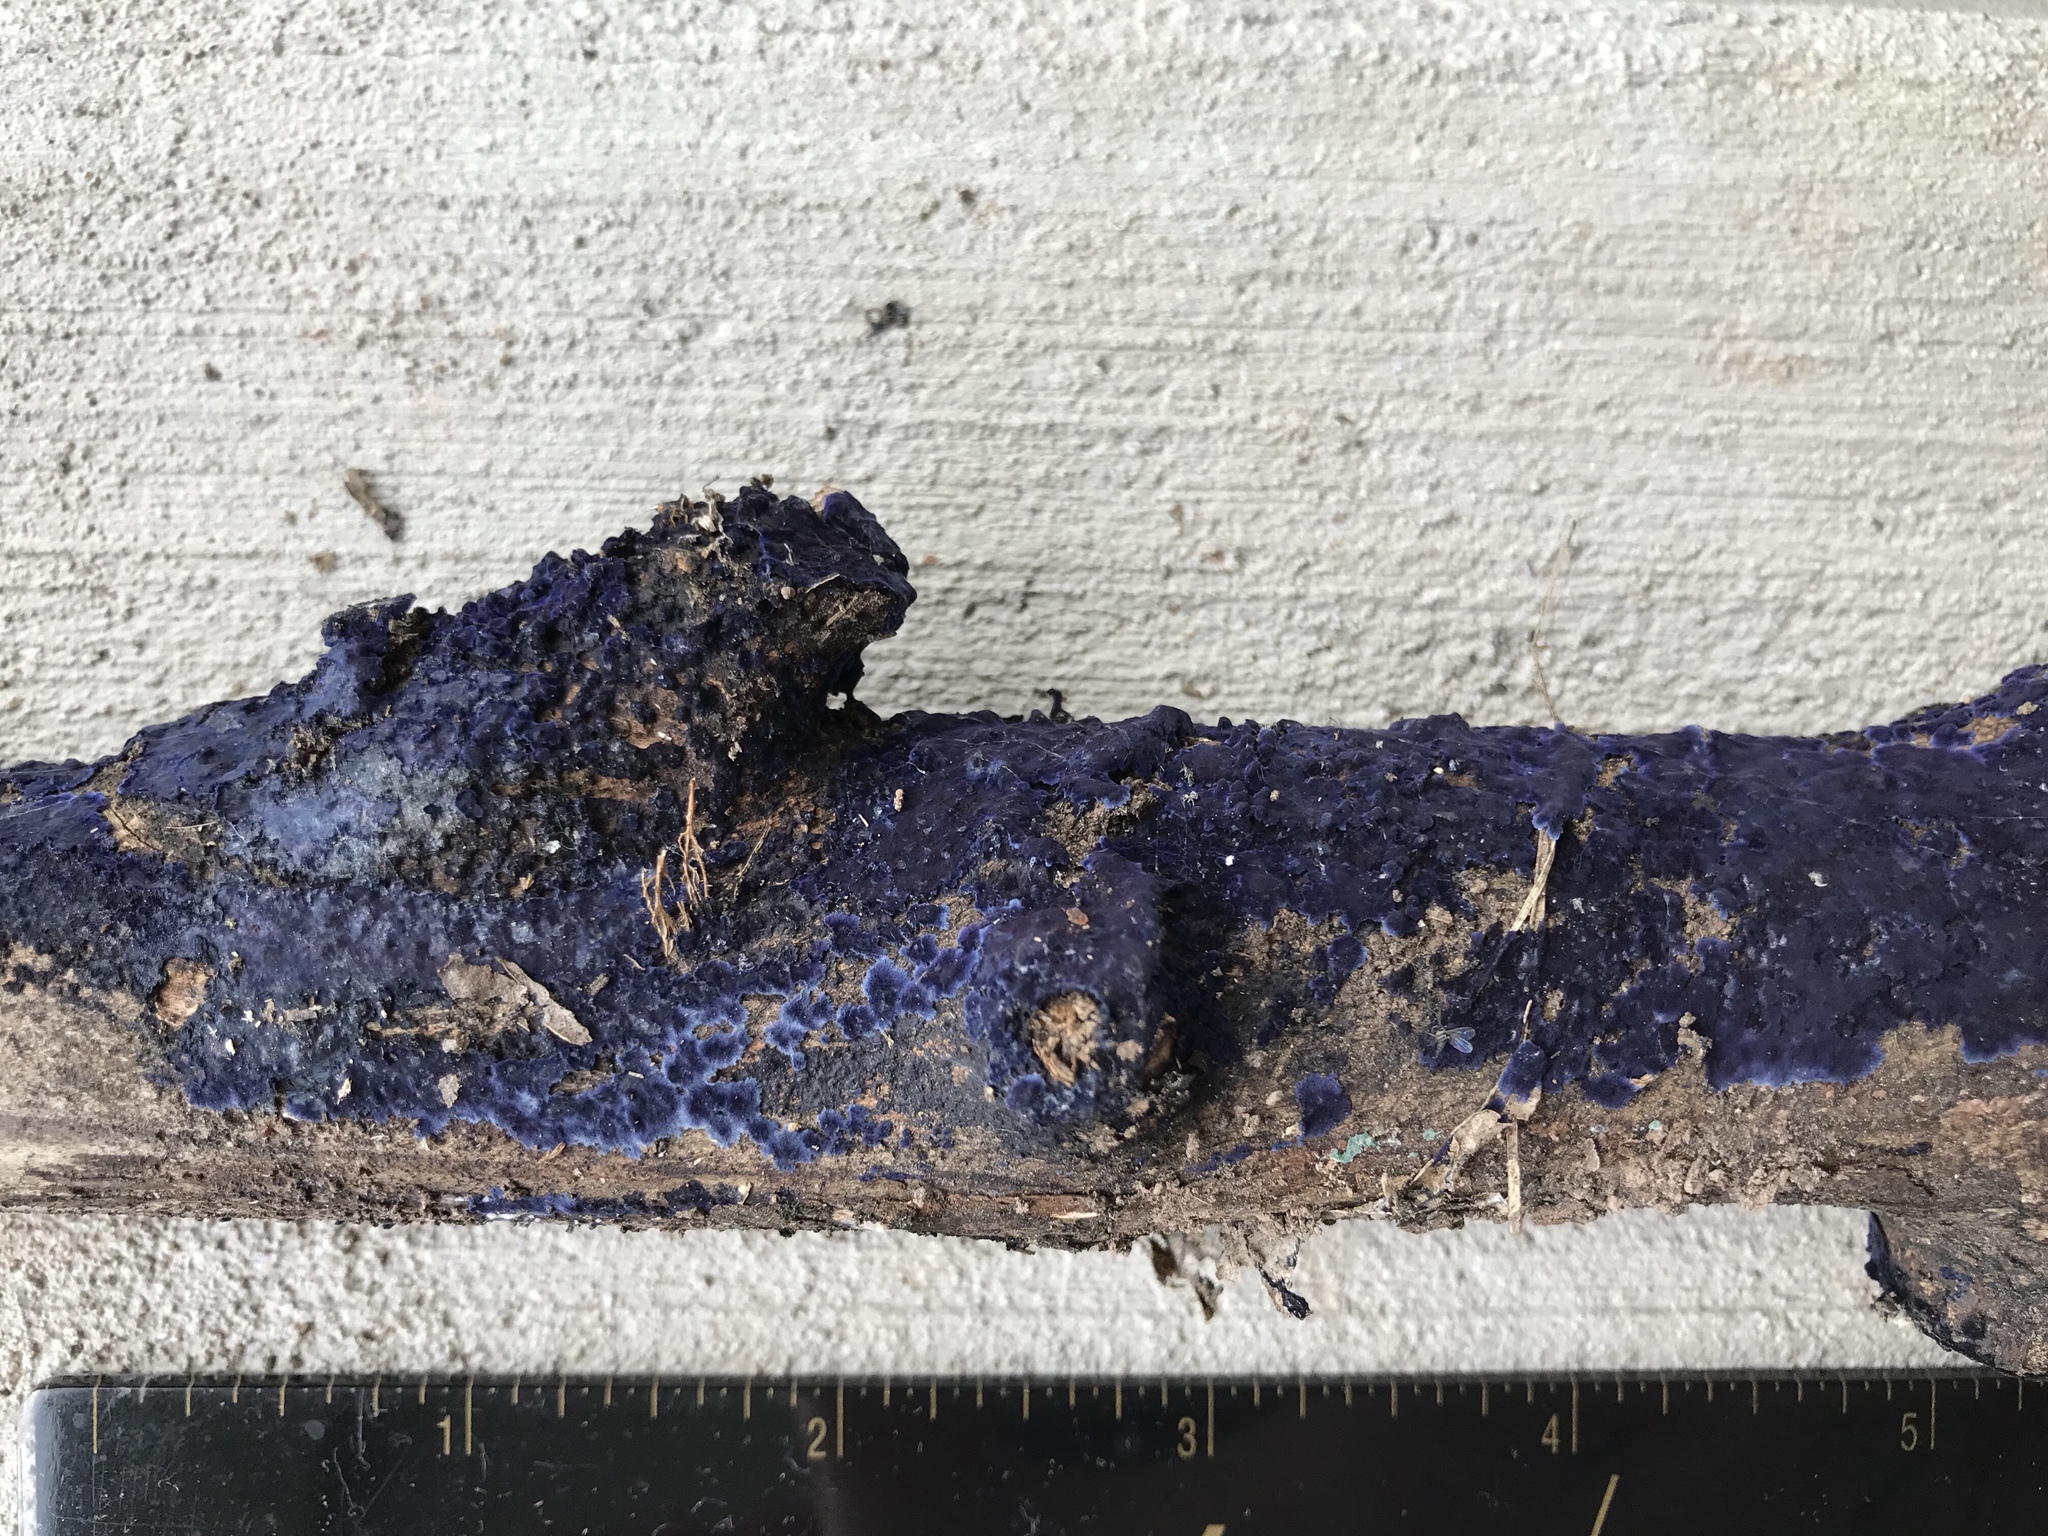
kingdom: Fungi
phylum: Basidiomycota
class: Agaricomycetes
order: Polyporales
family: Phanerochaetaceae
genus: Terana
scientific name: Terana coerulea
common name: Cobalt crust
